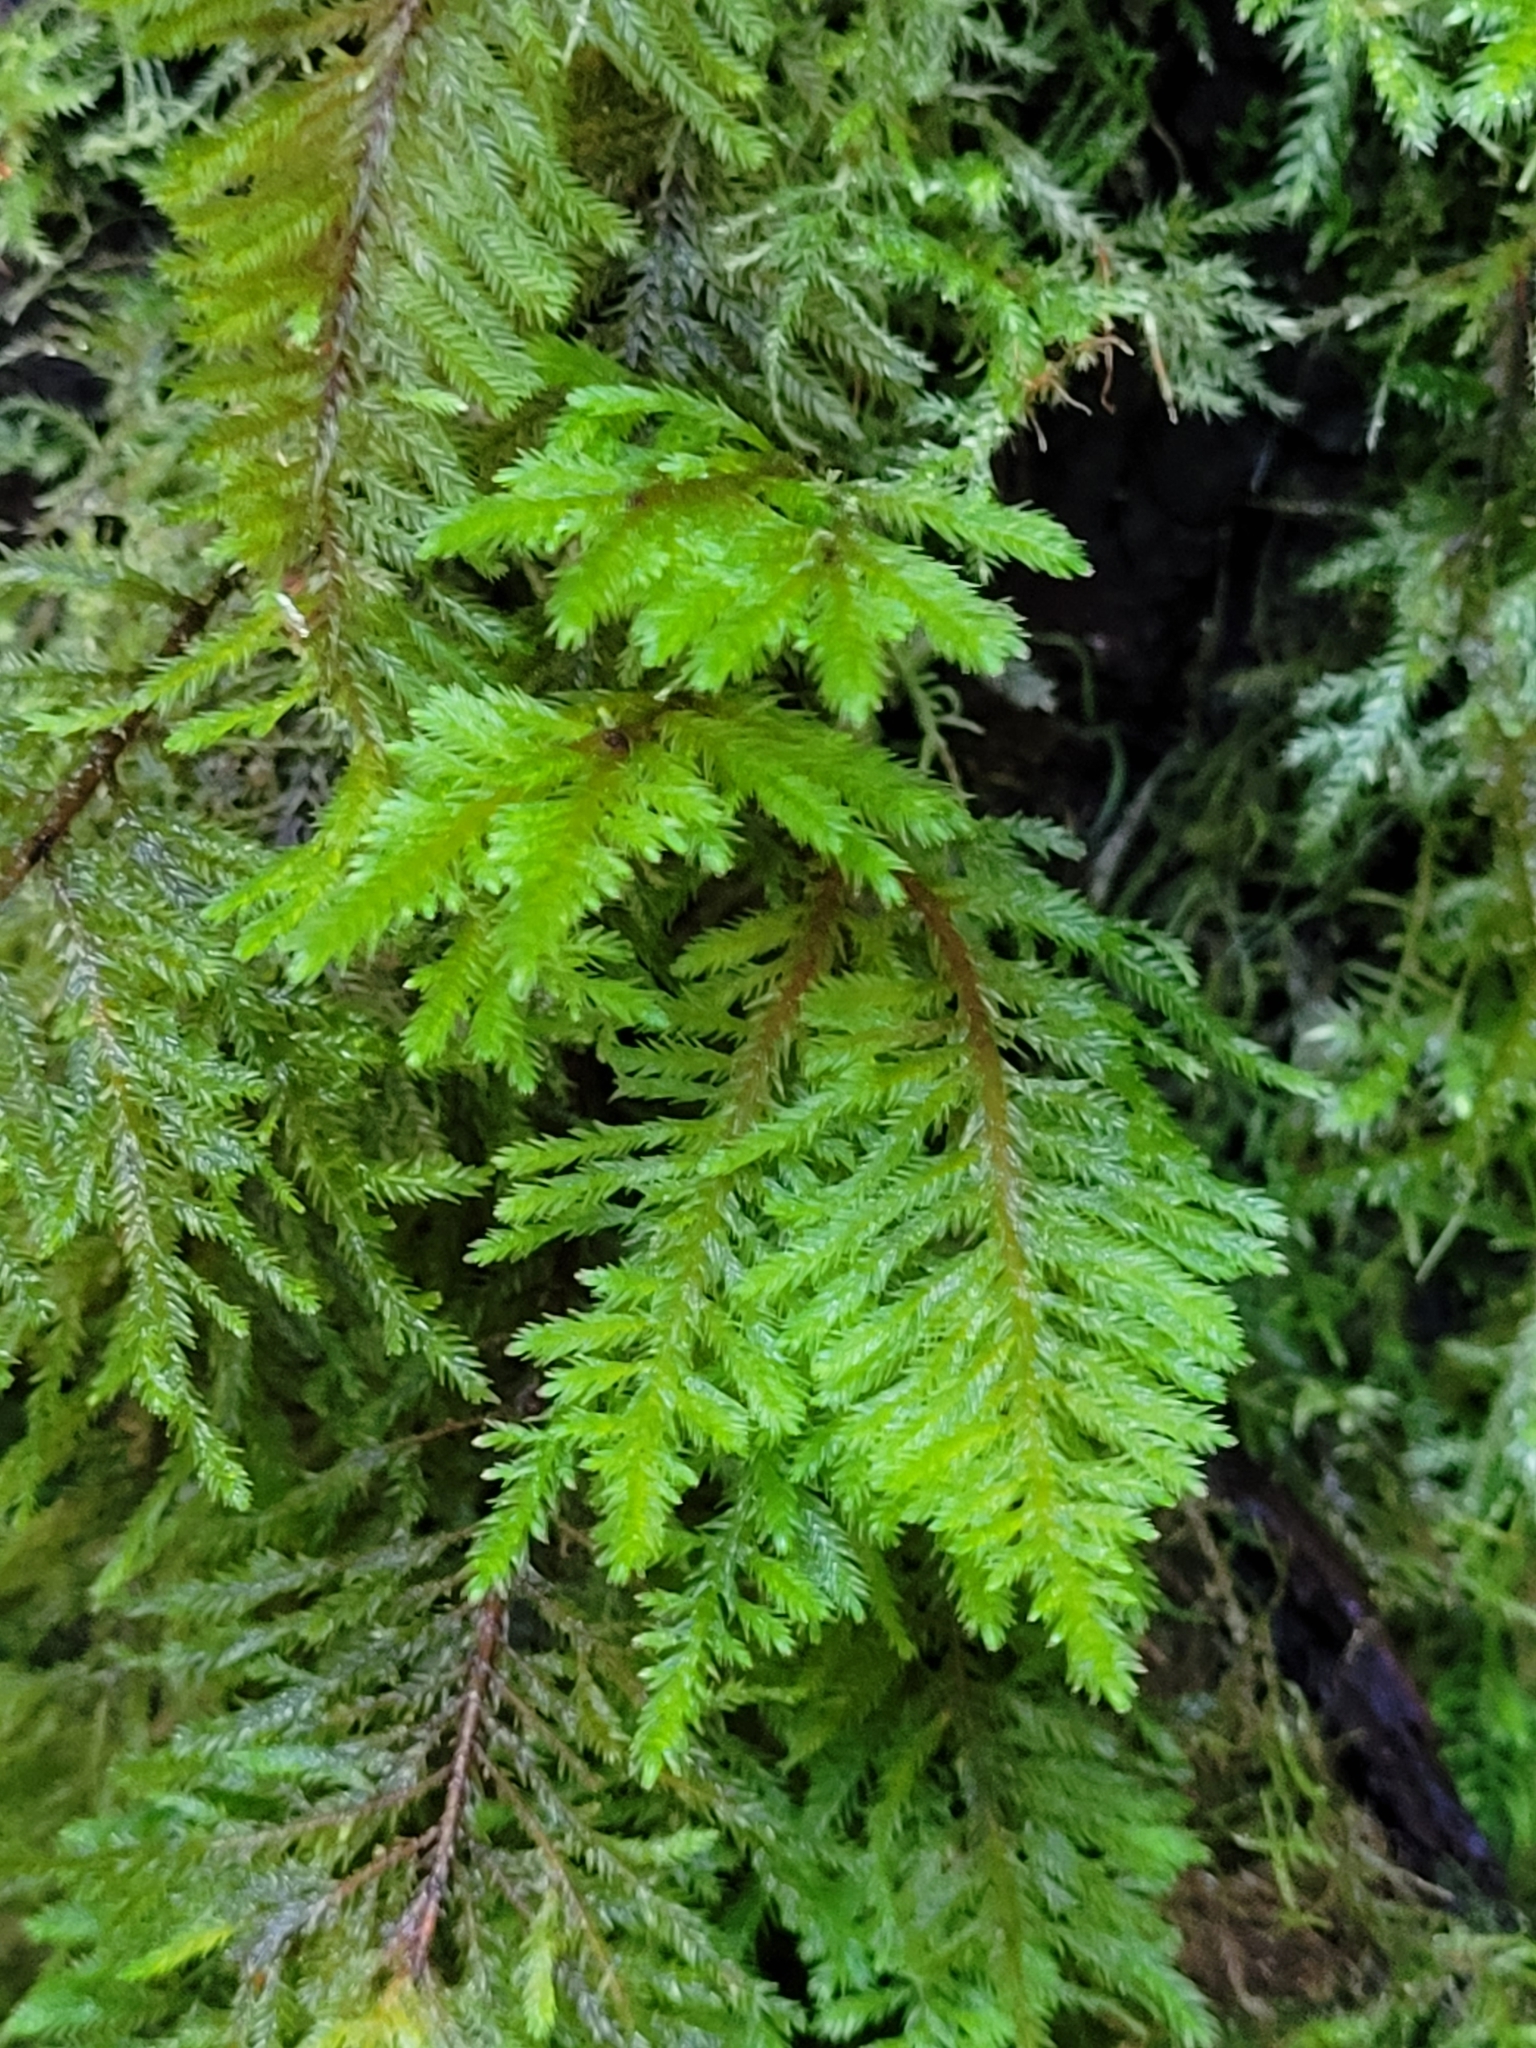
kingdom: Plantae
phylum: Bryophyta
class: Bryopsida
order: Hypnales
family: Brachytheciaceae
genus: Kindbergia
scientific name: Kindbergia oregana
